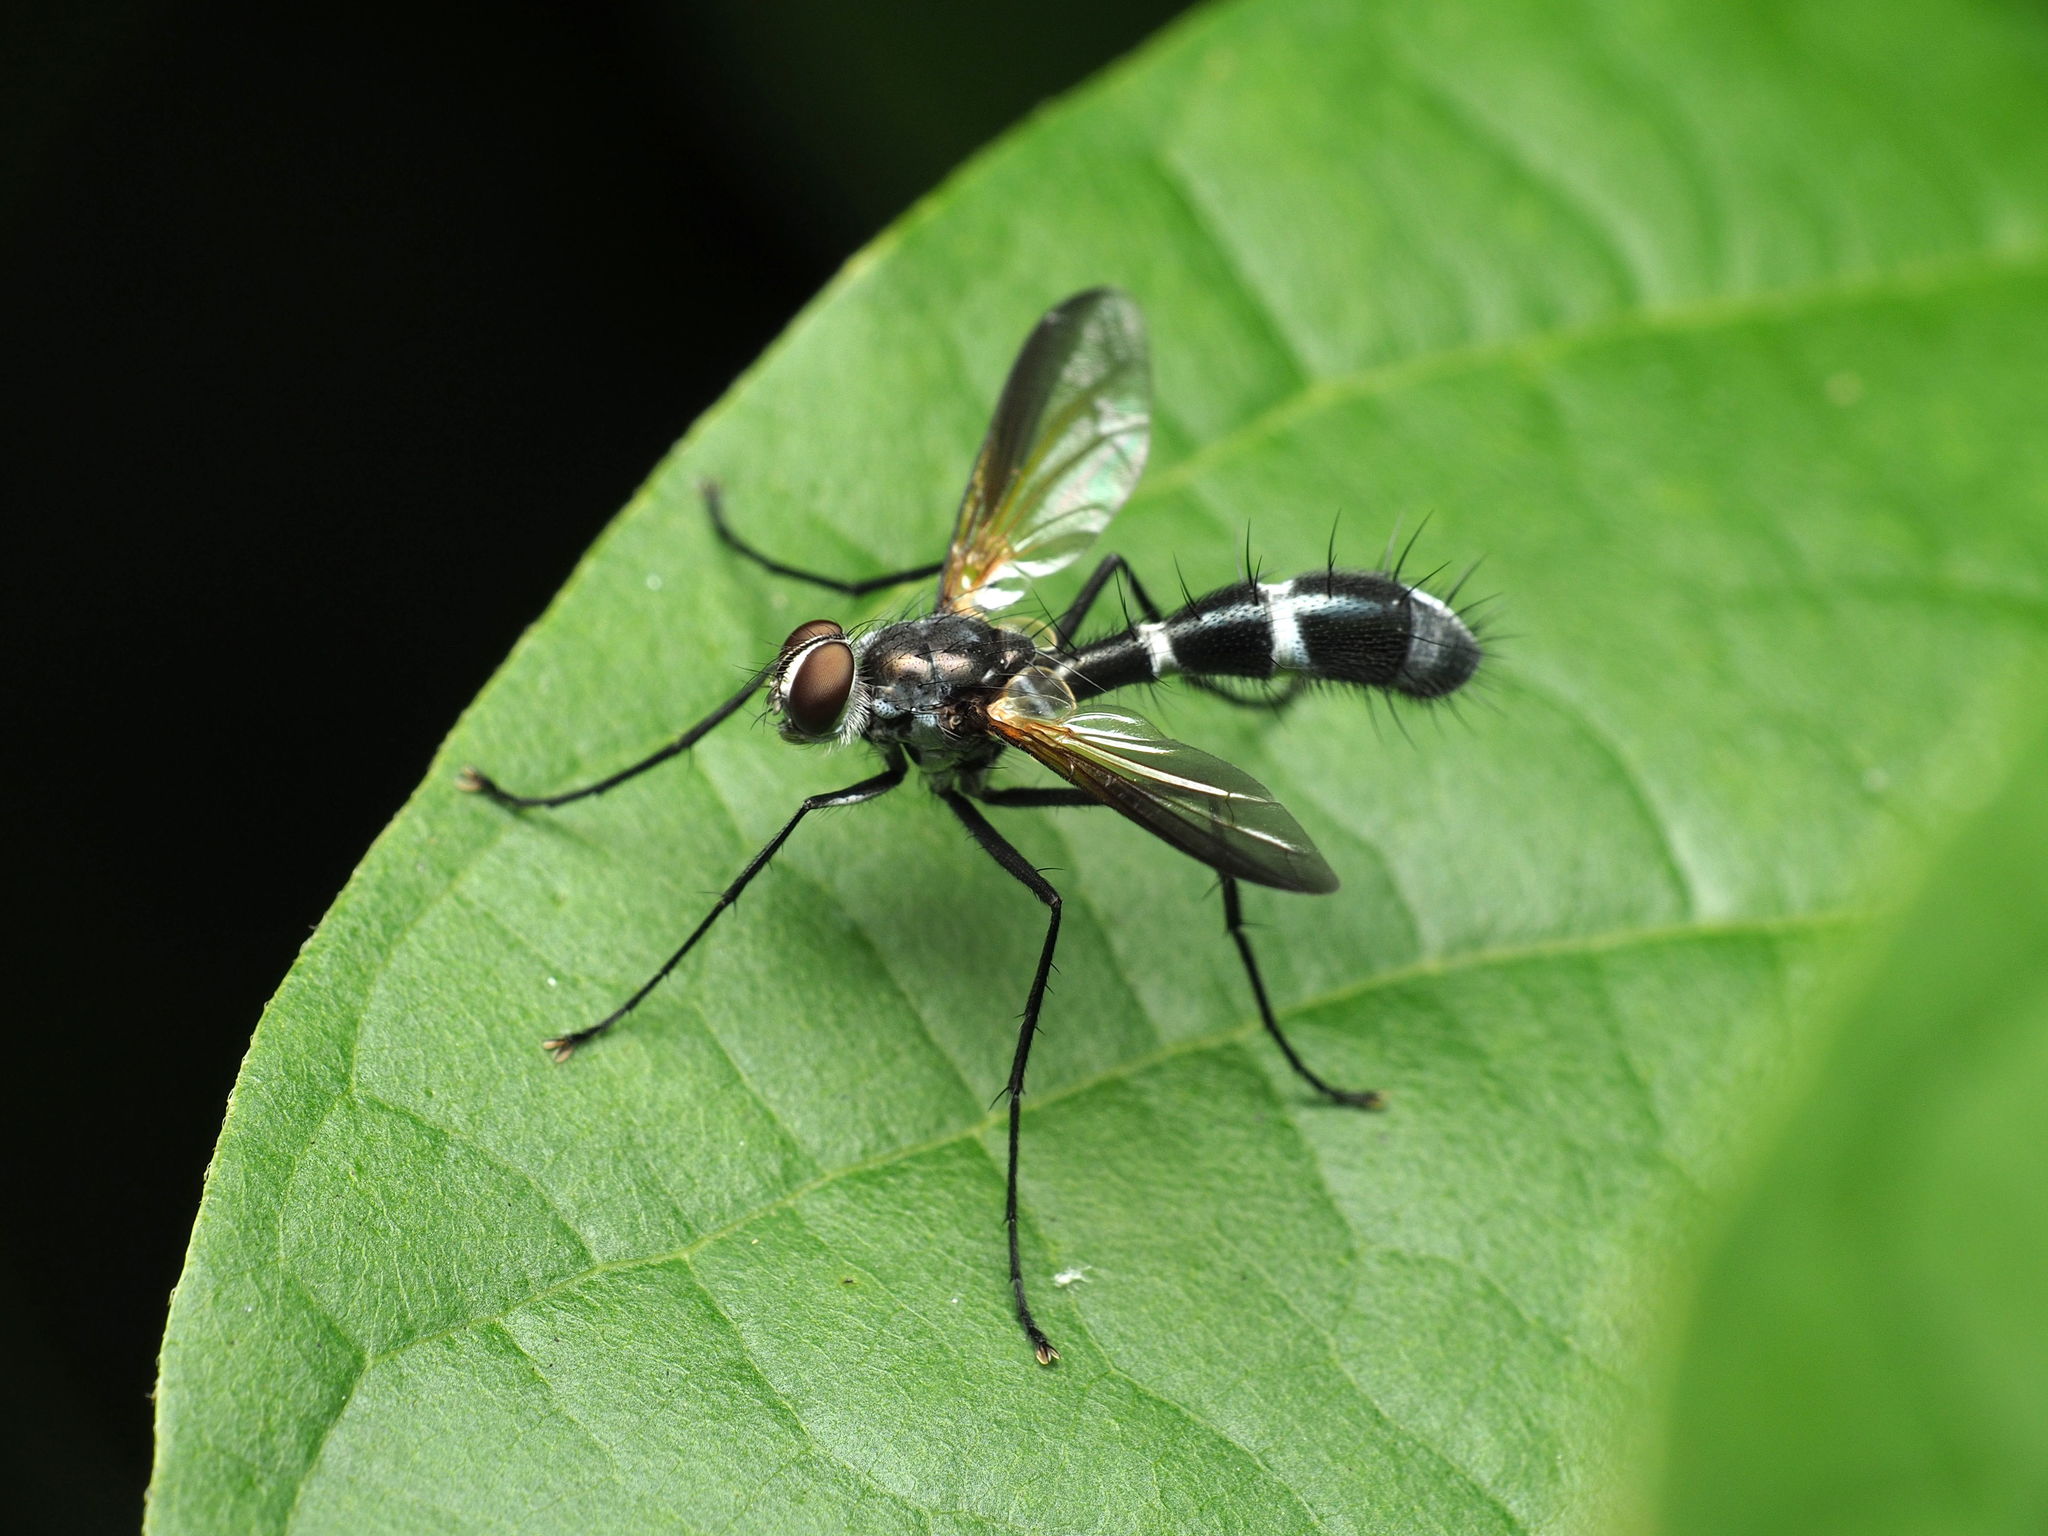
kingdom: Animalia
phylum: Arthropoda
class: Insecta
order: Diptera
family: Tachinidae
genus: Cordyligaster
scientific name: Cordyligaster septentrionalis
